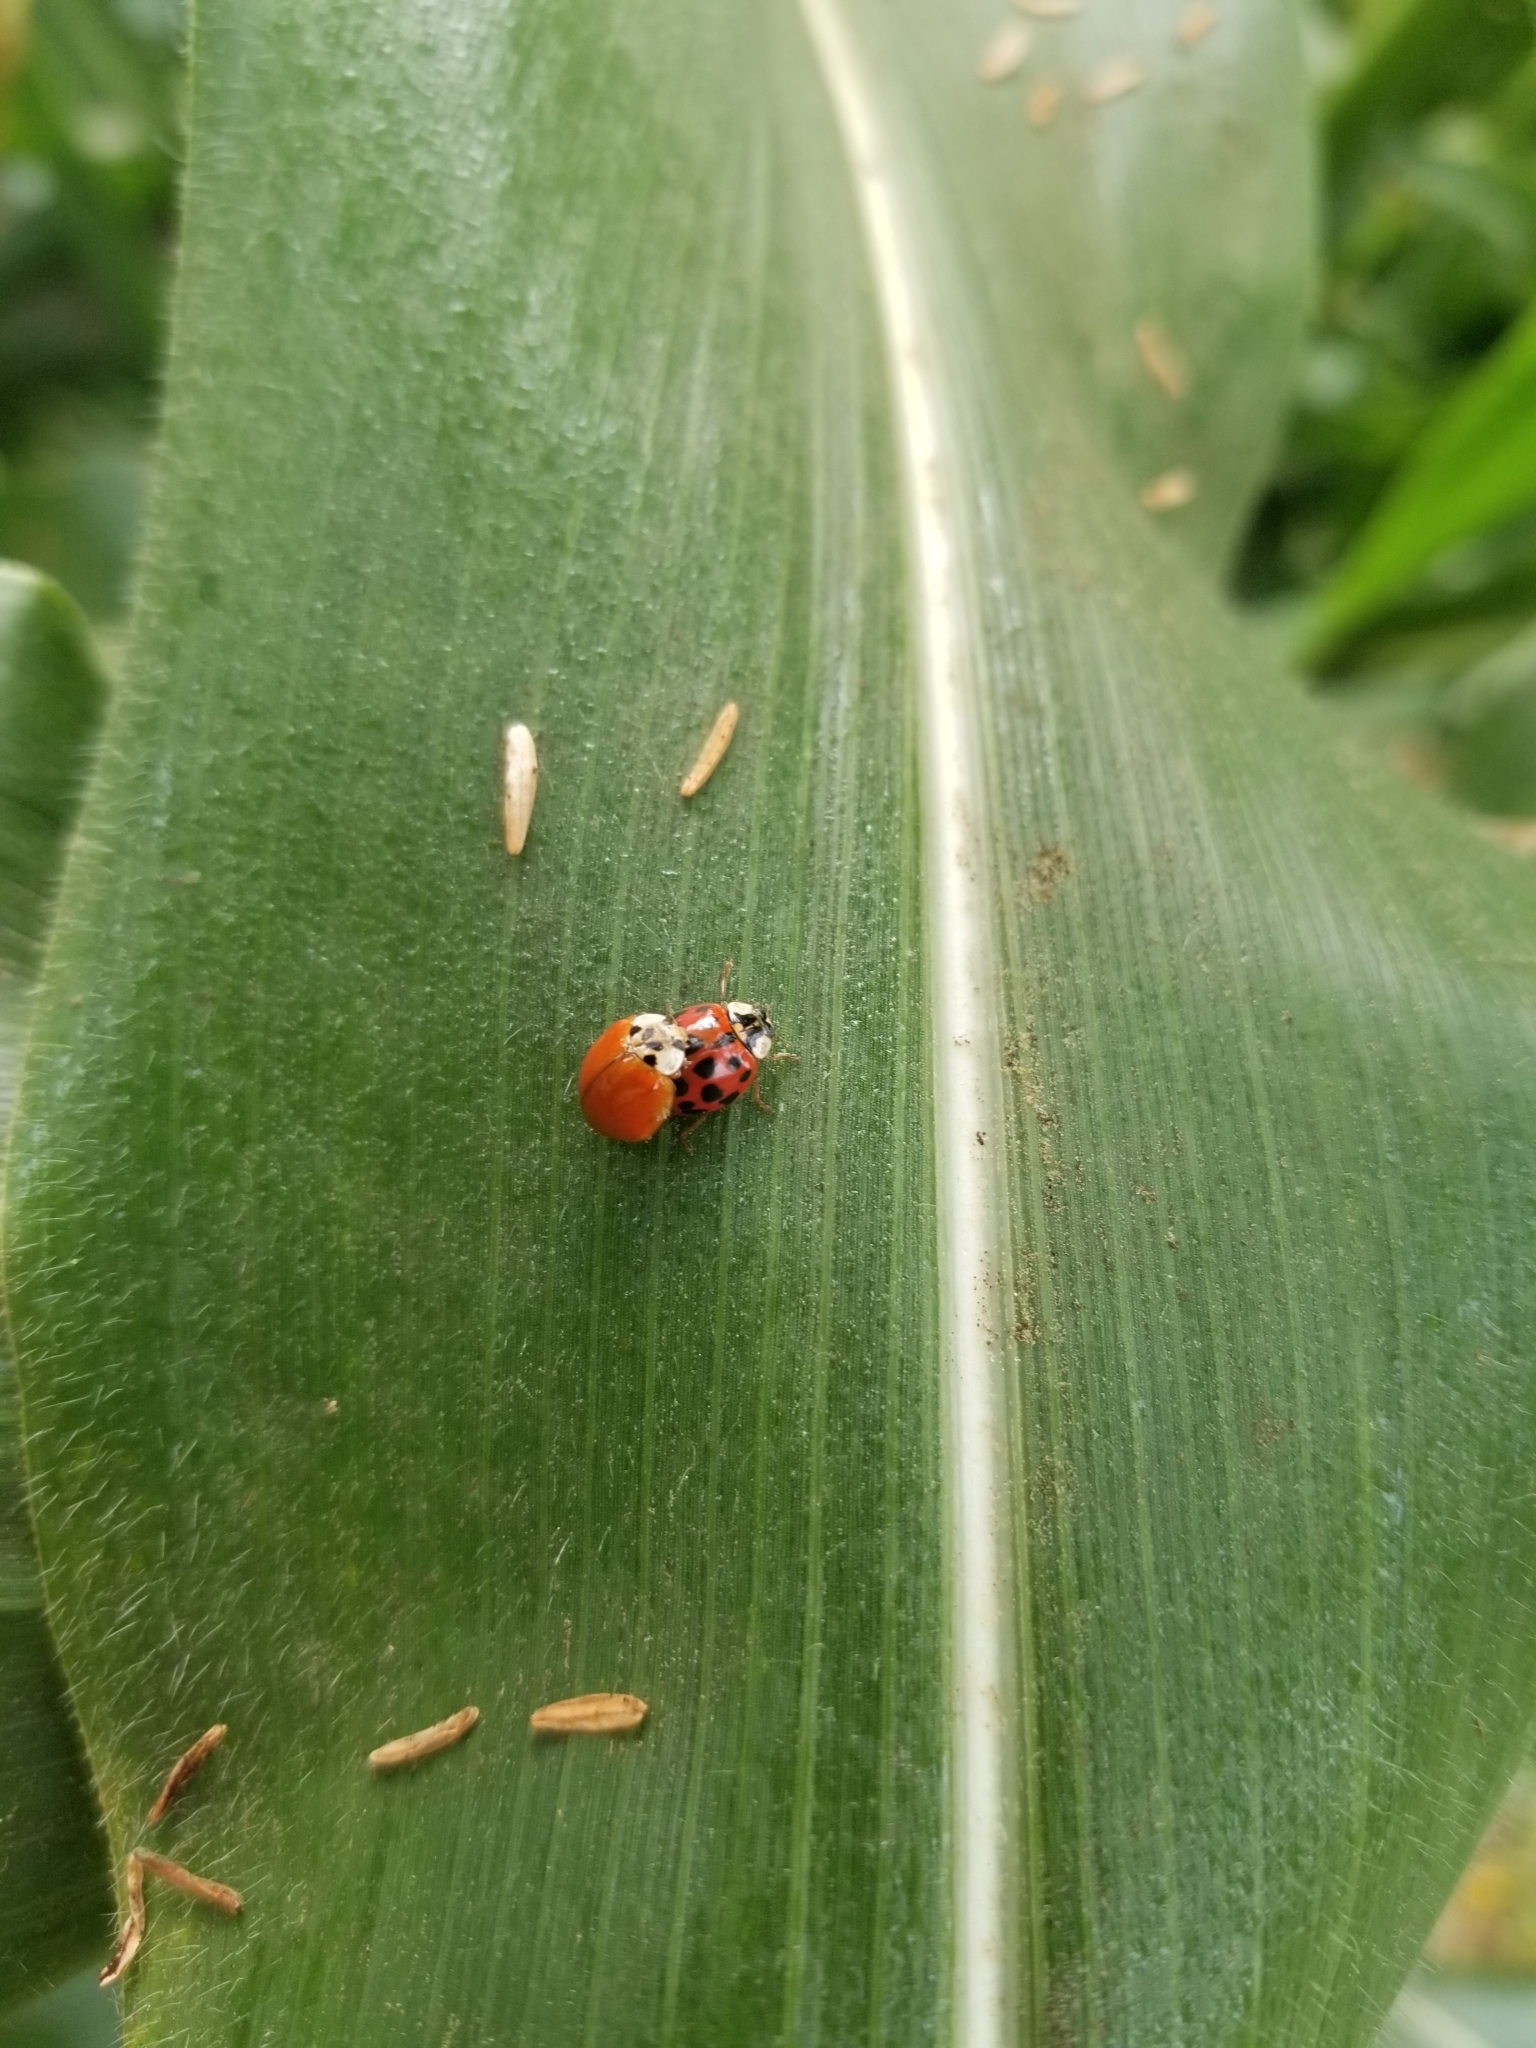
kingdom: Animalia
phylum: Arthropoda
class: Insecta
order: Coleoptera
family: Coccinellidae
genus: Harmonia
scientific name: Harmonia axyridis
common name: Harlequin ladybird
